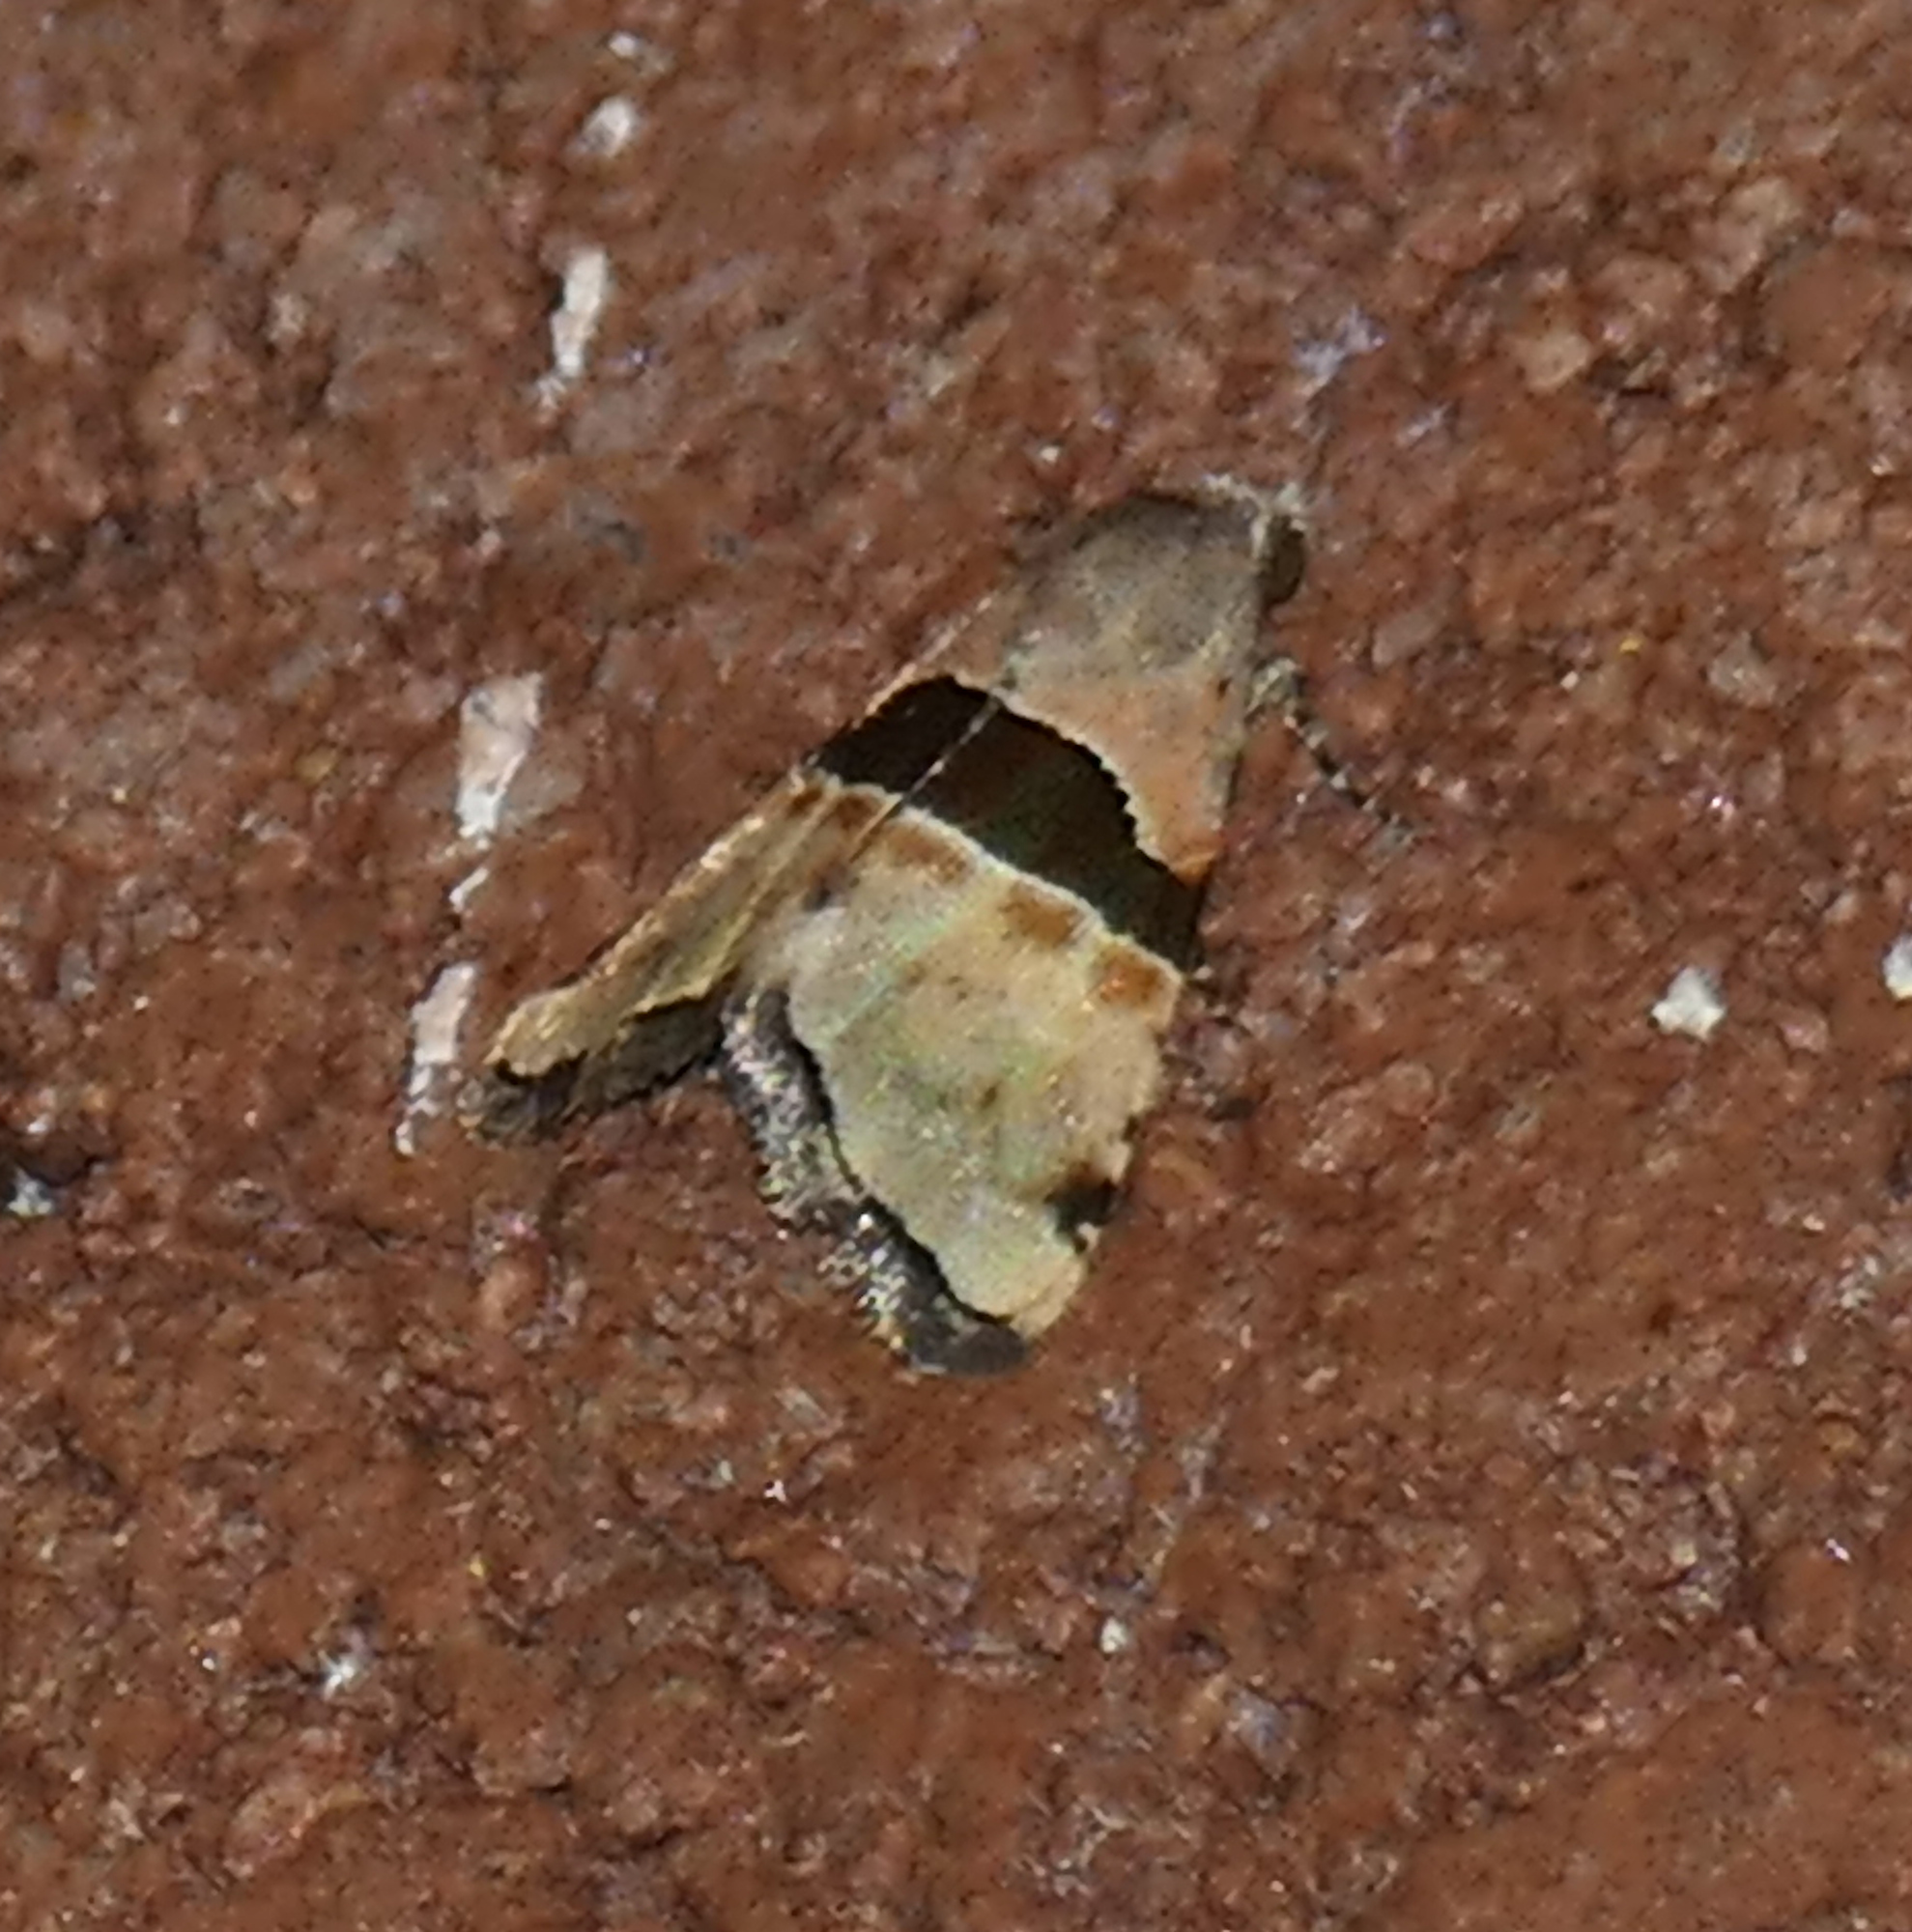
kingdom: Animalia
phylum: Arthropoda
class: Insecta
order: Lepidoptera
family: Noctuidae
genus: Cobubatha
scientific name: Cobubatha lixiva
